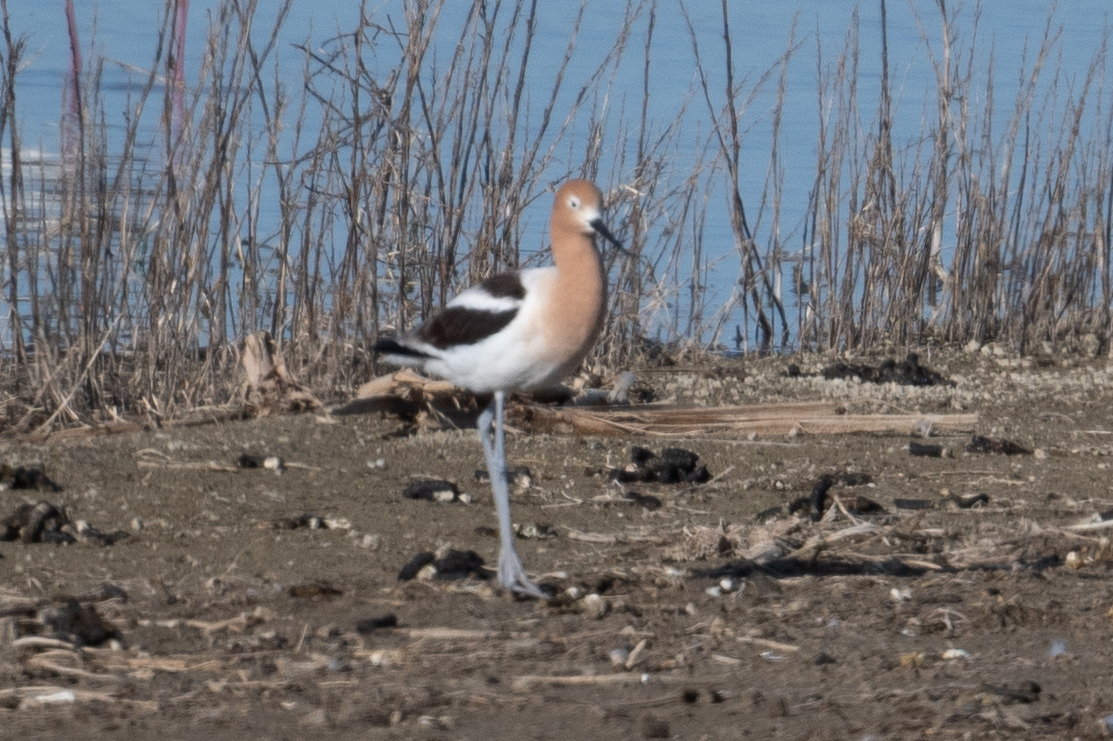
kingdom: Animalia
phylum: Chordata
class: Aves
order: Charadriiformes
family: Recurvirostridae
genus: Recurvirostra
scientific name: Recurvirostra americana
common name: American avocet
